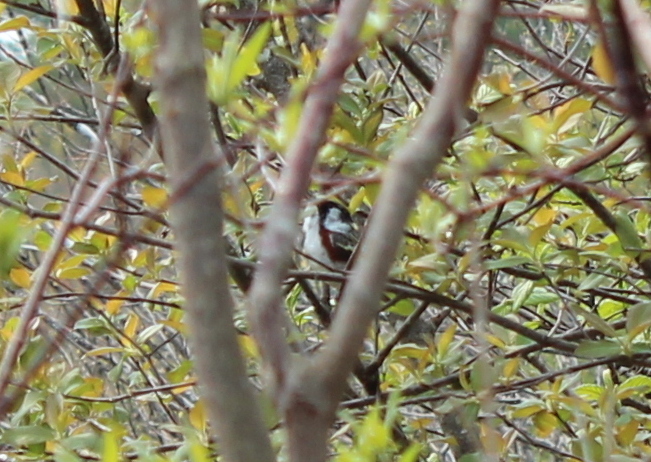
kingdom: Animalia
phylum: Chordata
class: Aves
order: Passeriformes
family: Parulidae
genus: Setophaga
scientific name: Setophaga pensylvanica
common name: Chestnut-sided warbler
